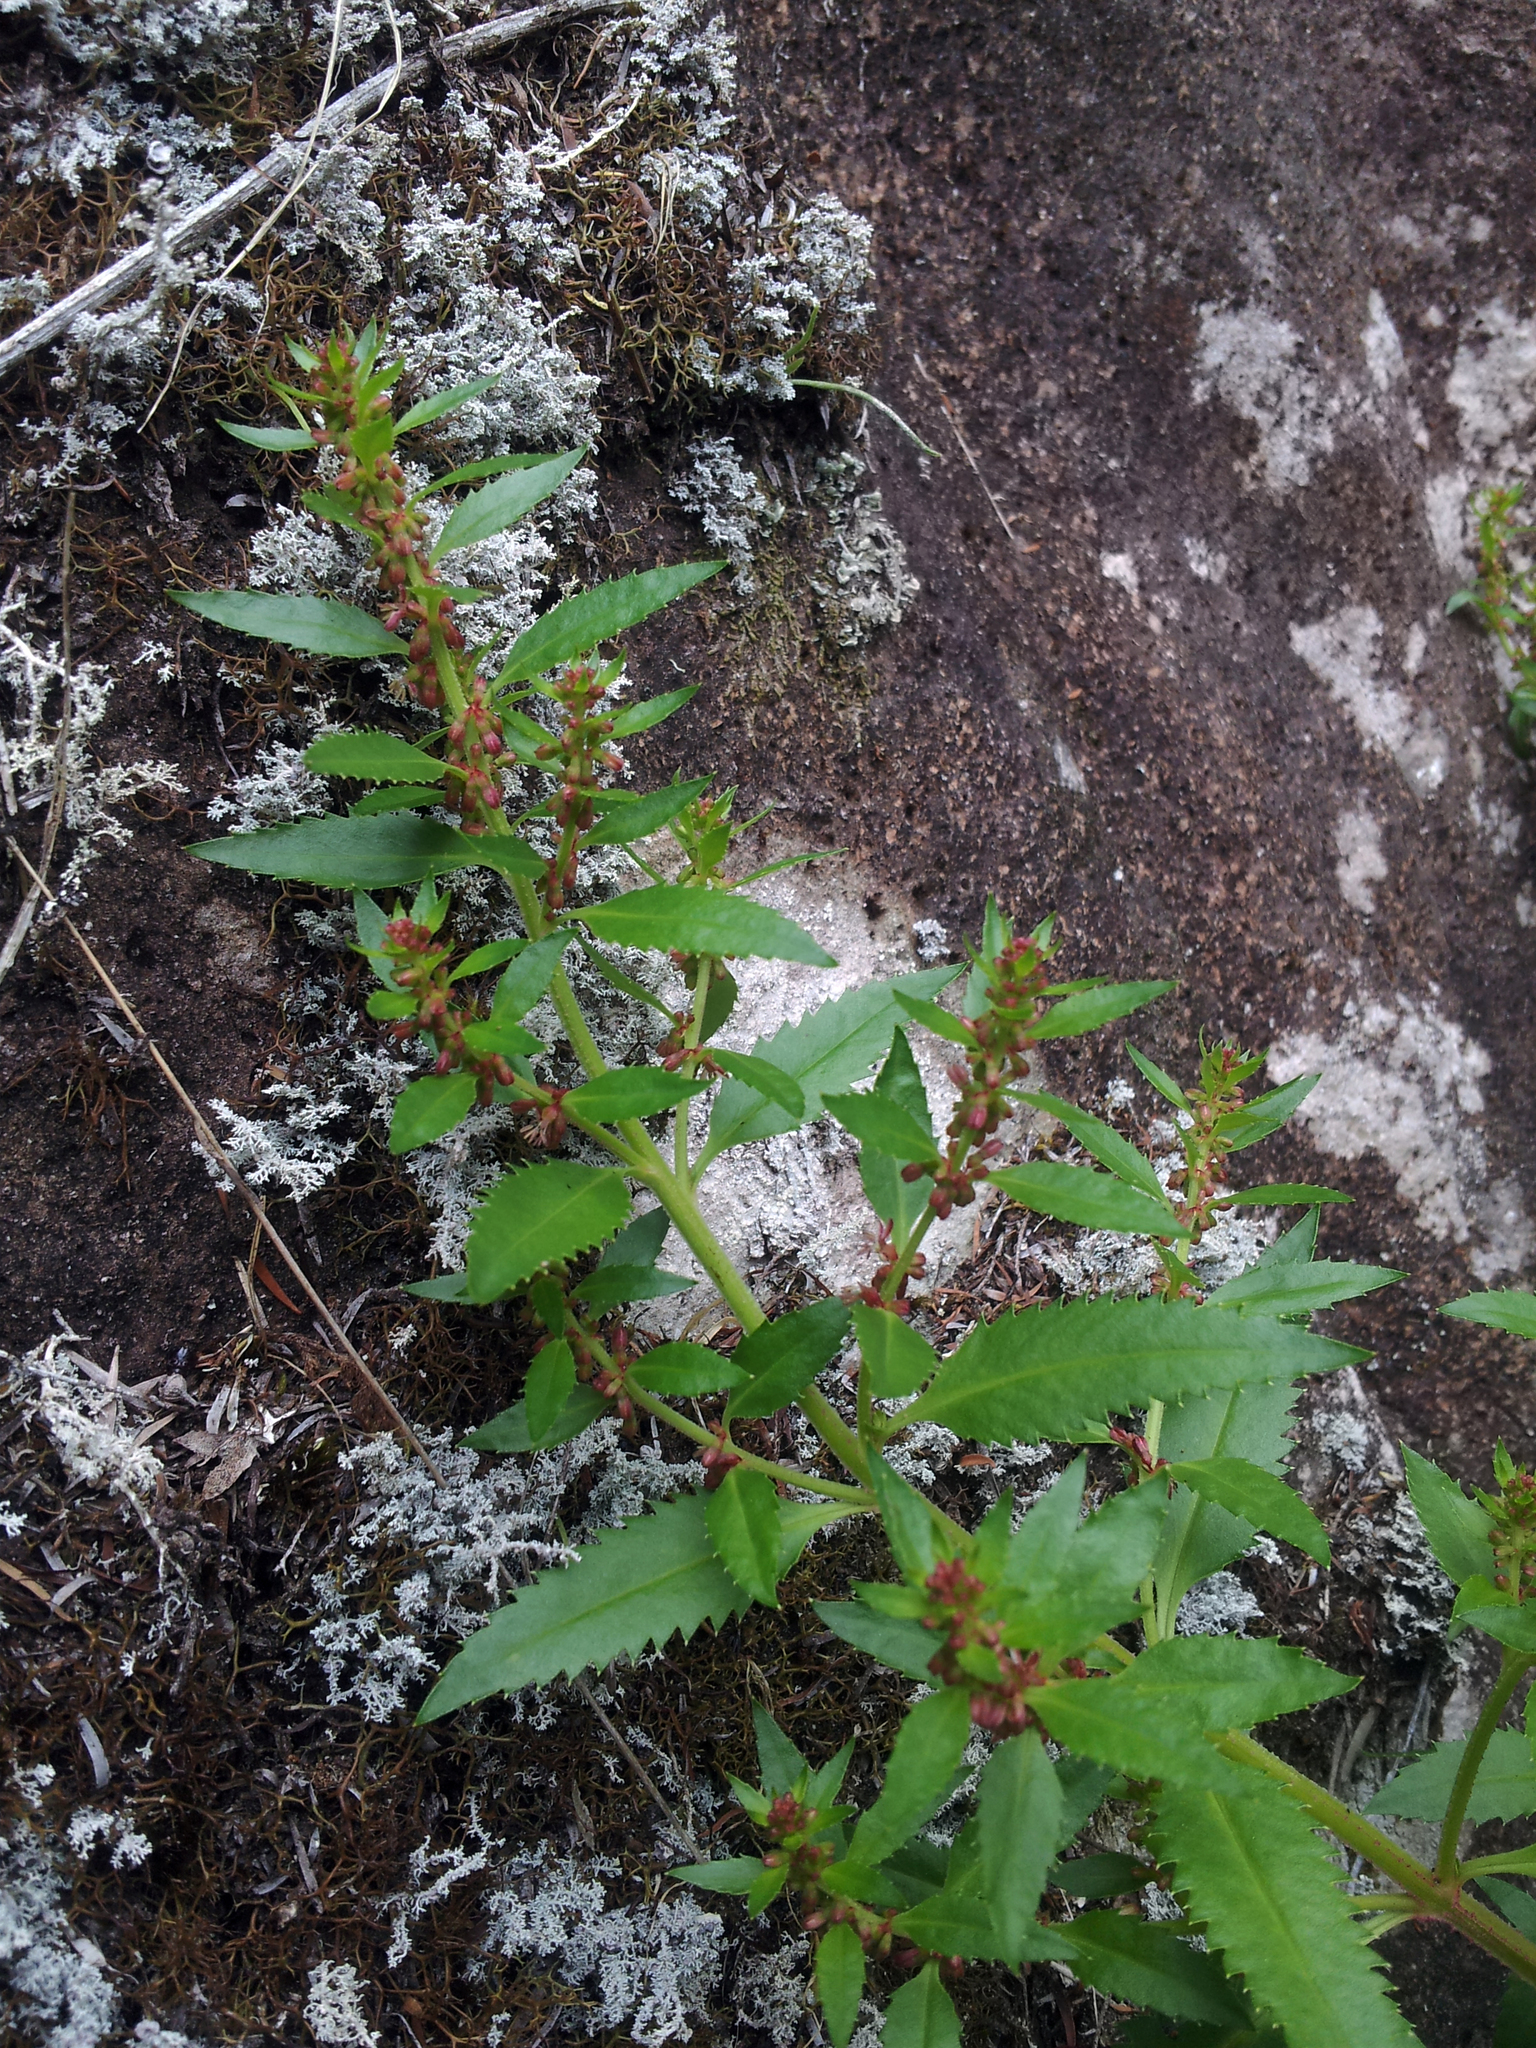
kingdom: Plantae
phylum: Tracheophyta
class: Magnoliopsida
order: Saxifragales
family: Haloragaceae
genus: Haloragis
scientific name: Haloragis erecta
